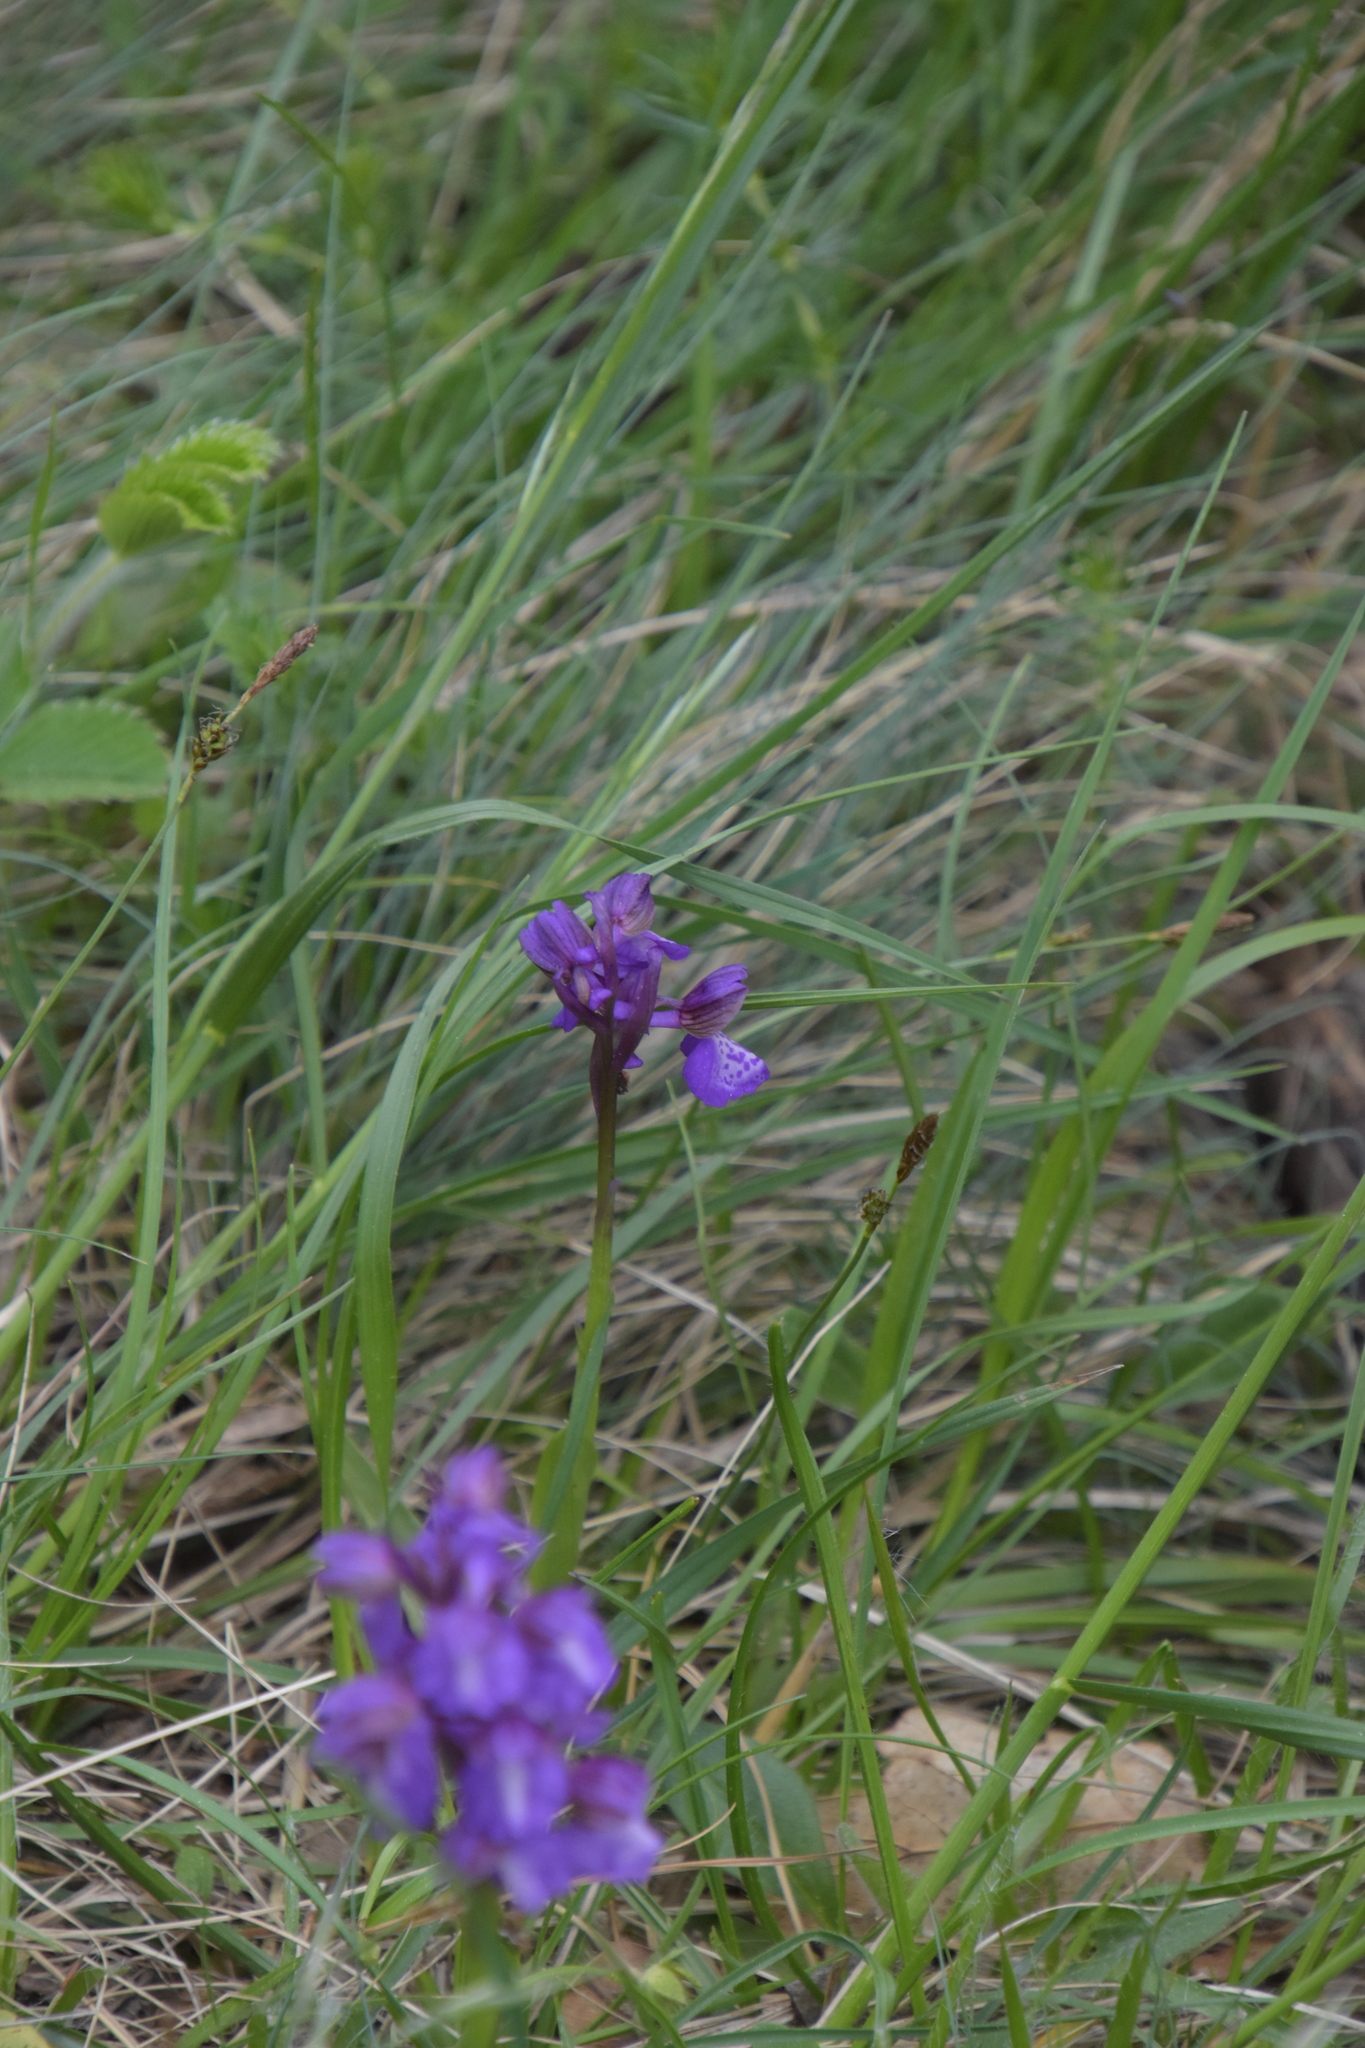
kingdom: Plantae
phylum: Tracheophyta
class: Liliopsida
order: Asparagales
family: Orchidaceae
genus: Anacamptis
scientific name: Anacamptis morio
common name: Green-winged orchid
